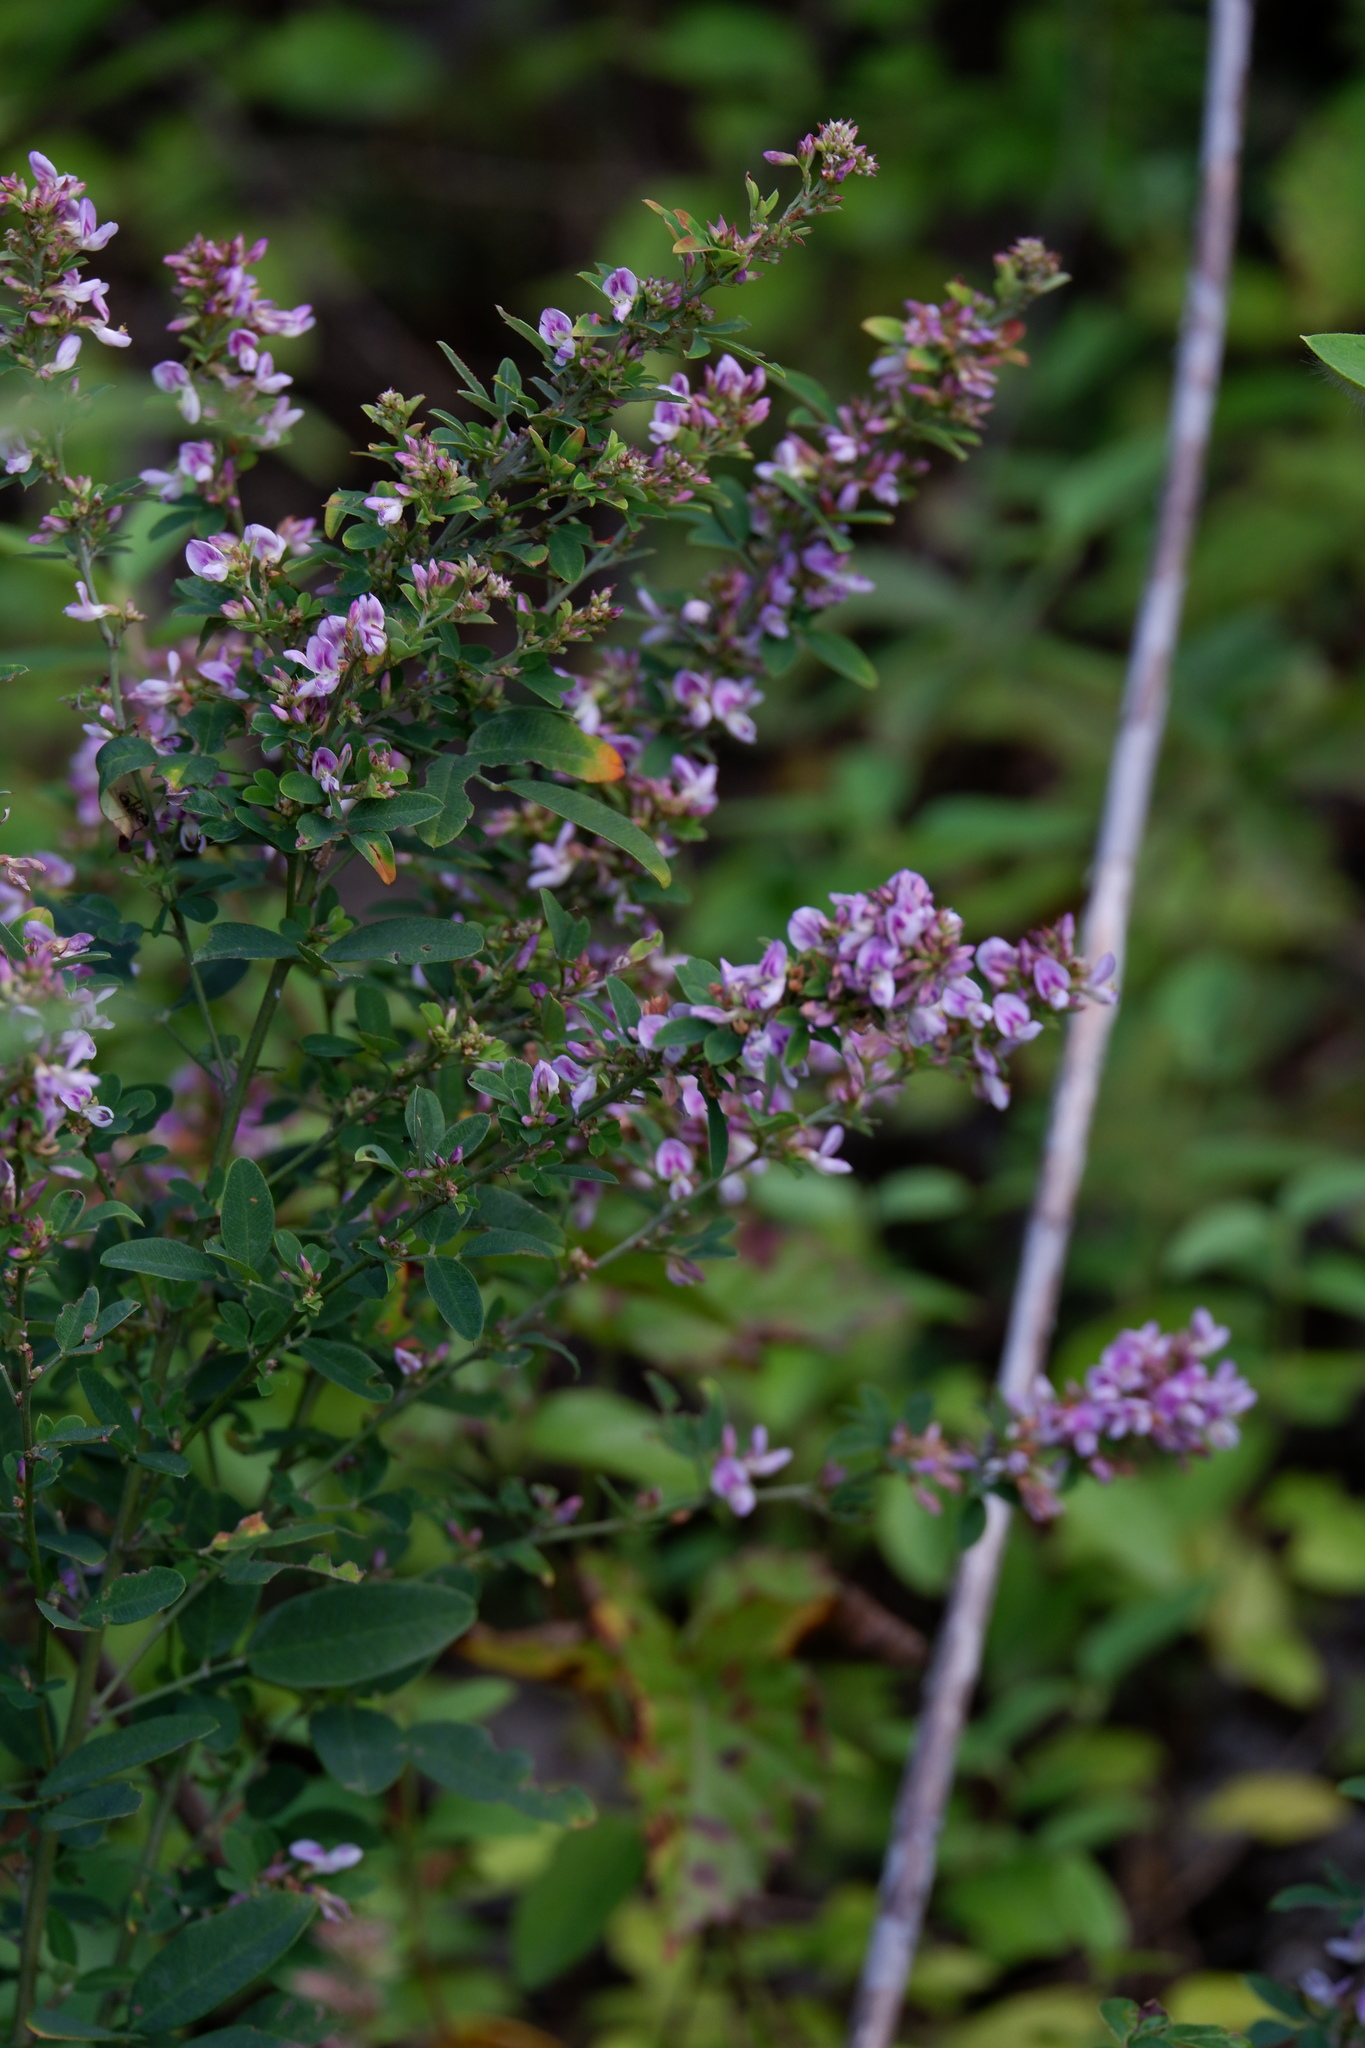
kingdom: Plantae
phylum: Tracheophyta
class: Magnoliopsida
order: Fabales
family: Fabaceae
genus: Lespedeza
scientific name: Lespedeza violacea
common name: Wand bush-clover
